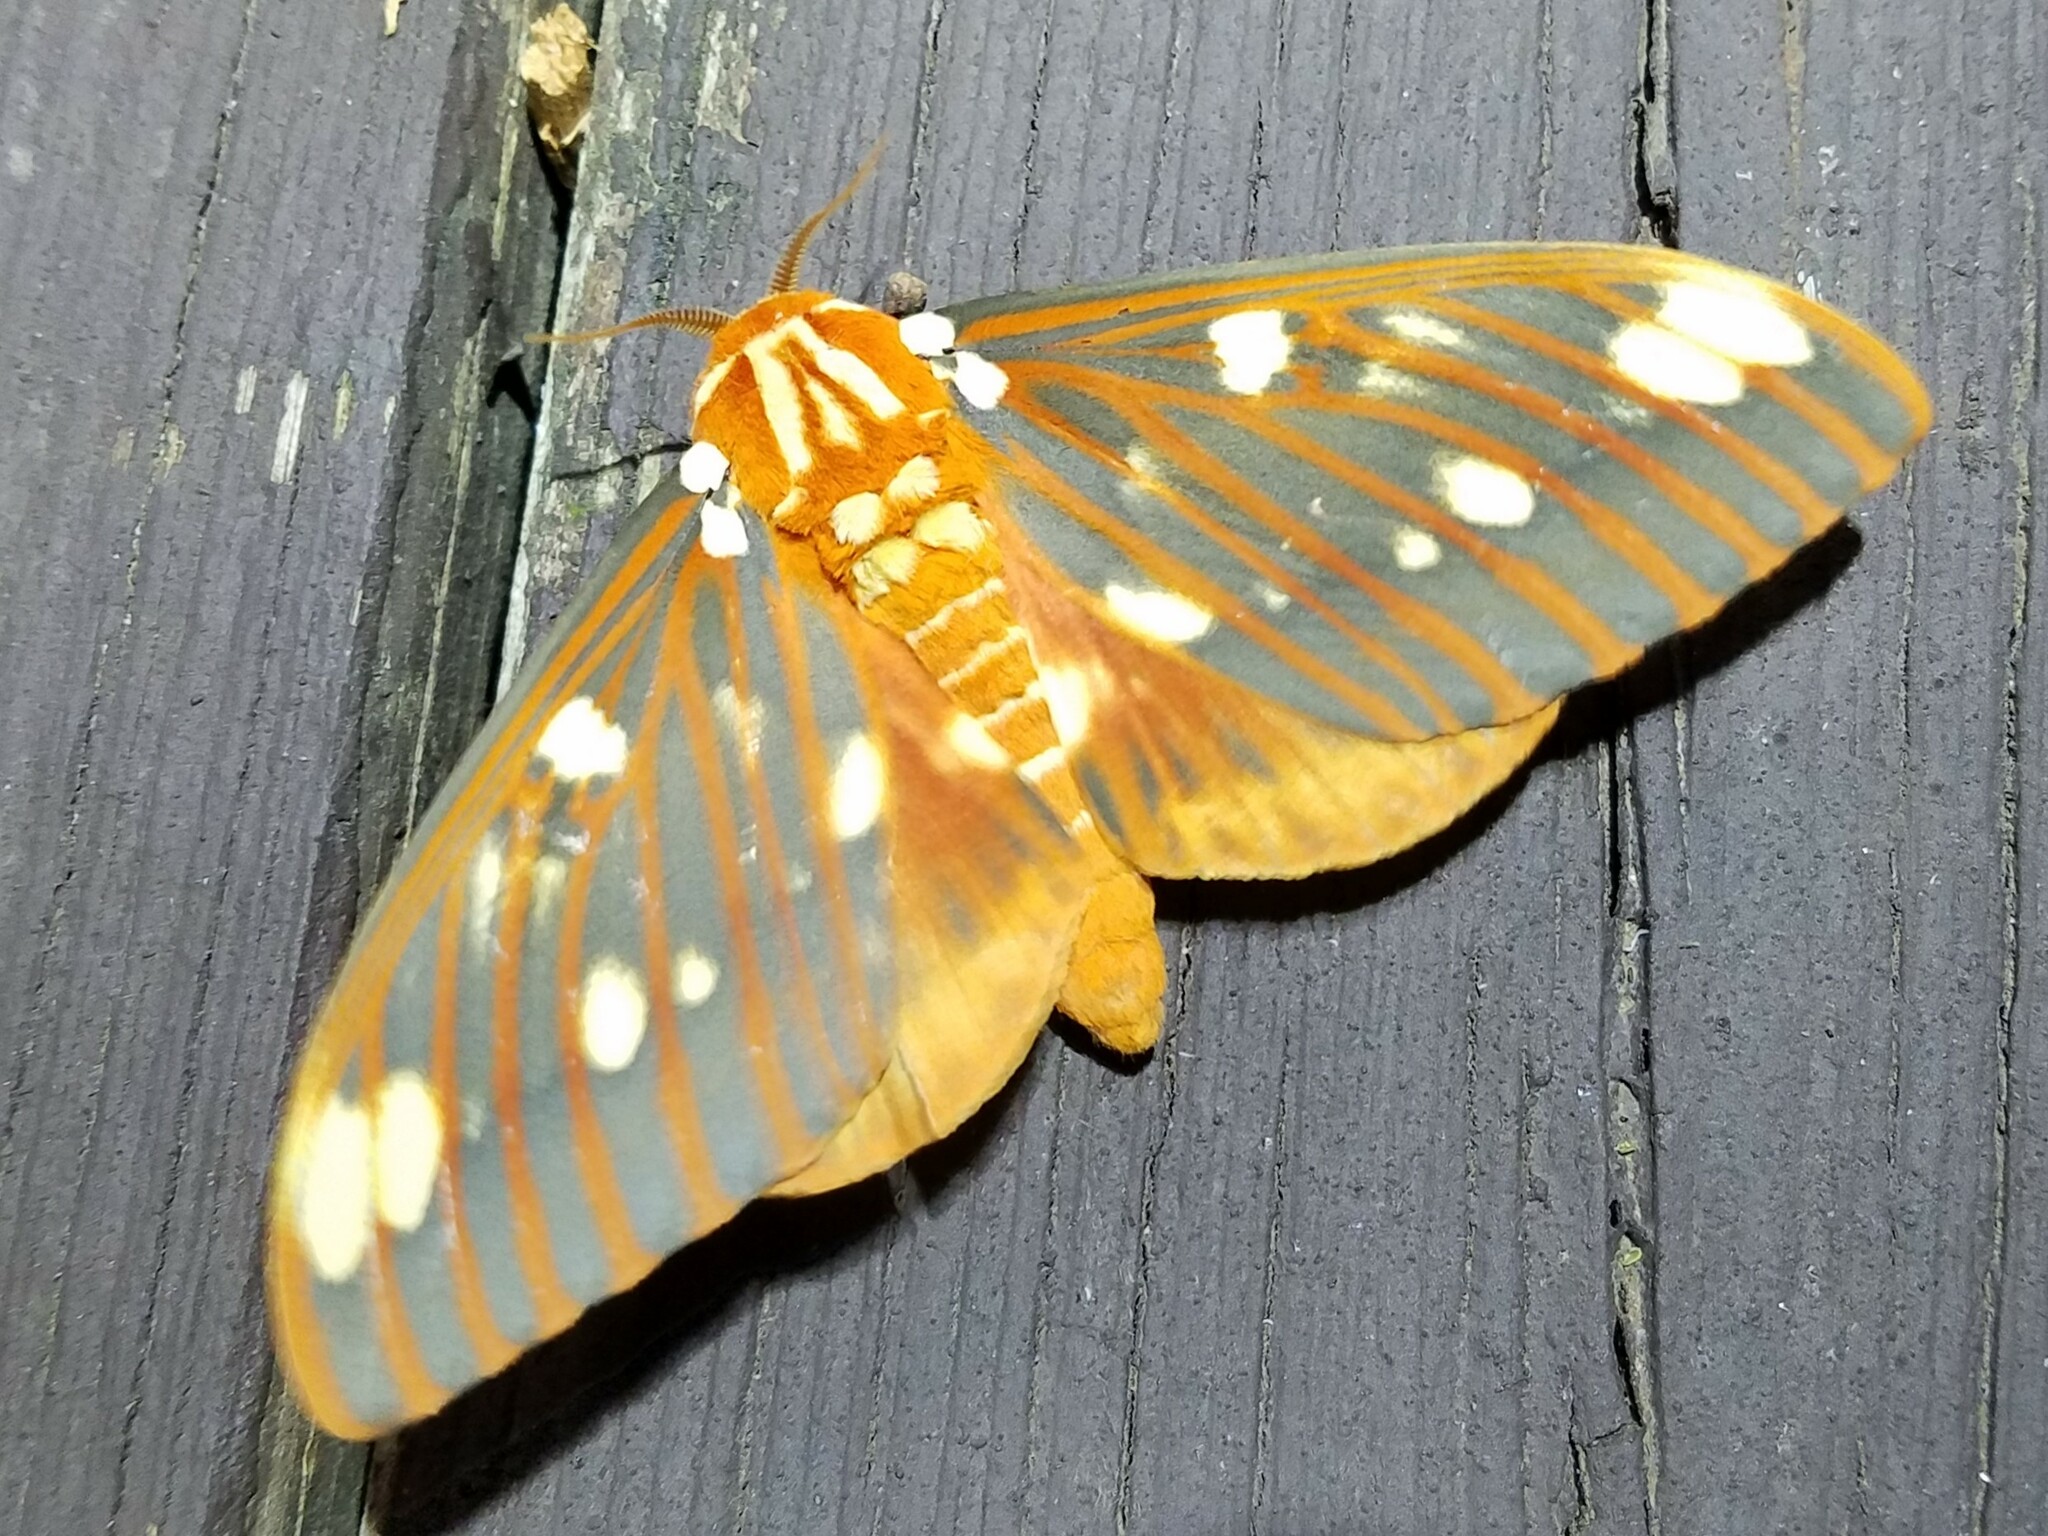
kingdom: Animalia
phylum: Arthropoda
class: Insecta
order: Lepidoptera
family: Saturniidae
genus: Citheronia
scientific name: Citheronia regalis
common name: Hickory horned devil
